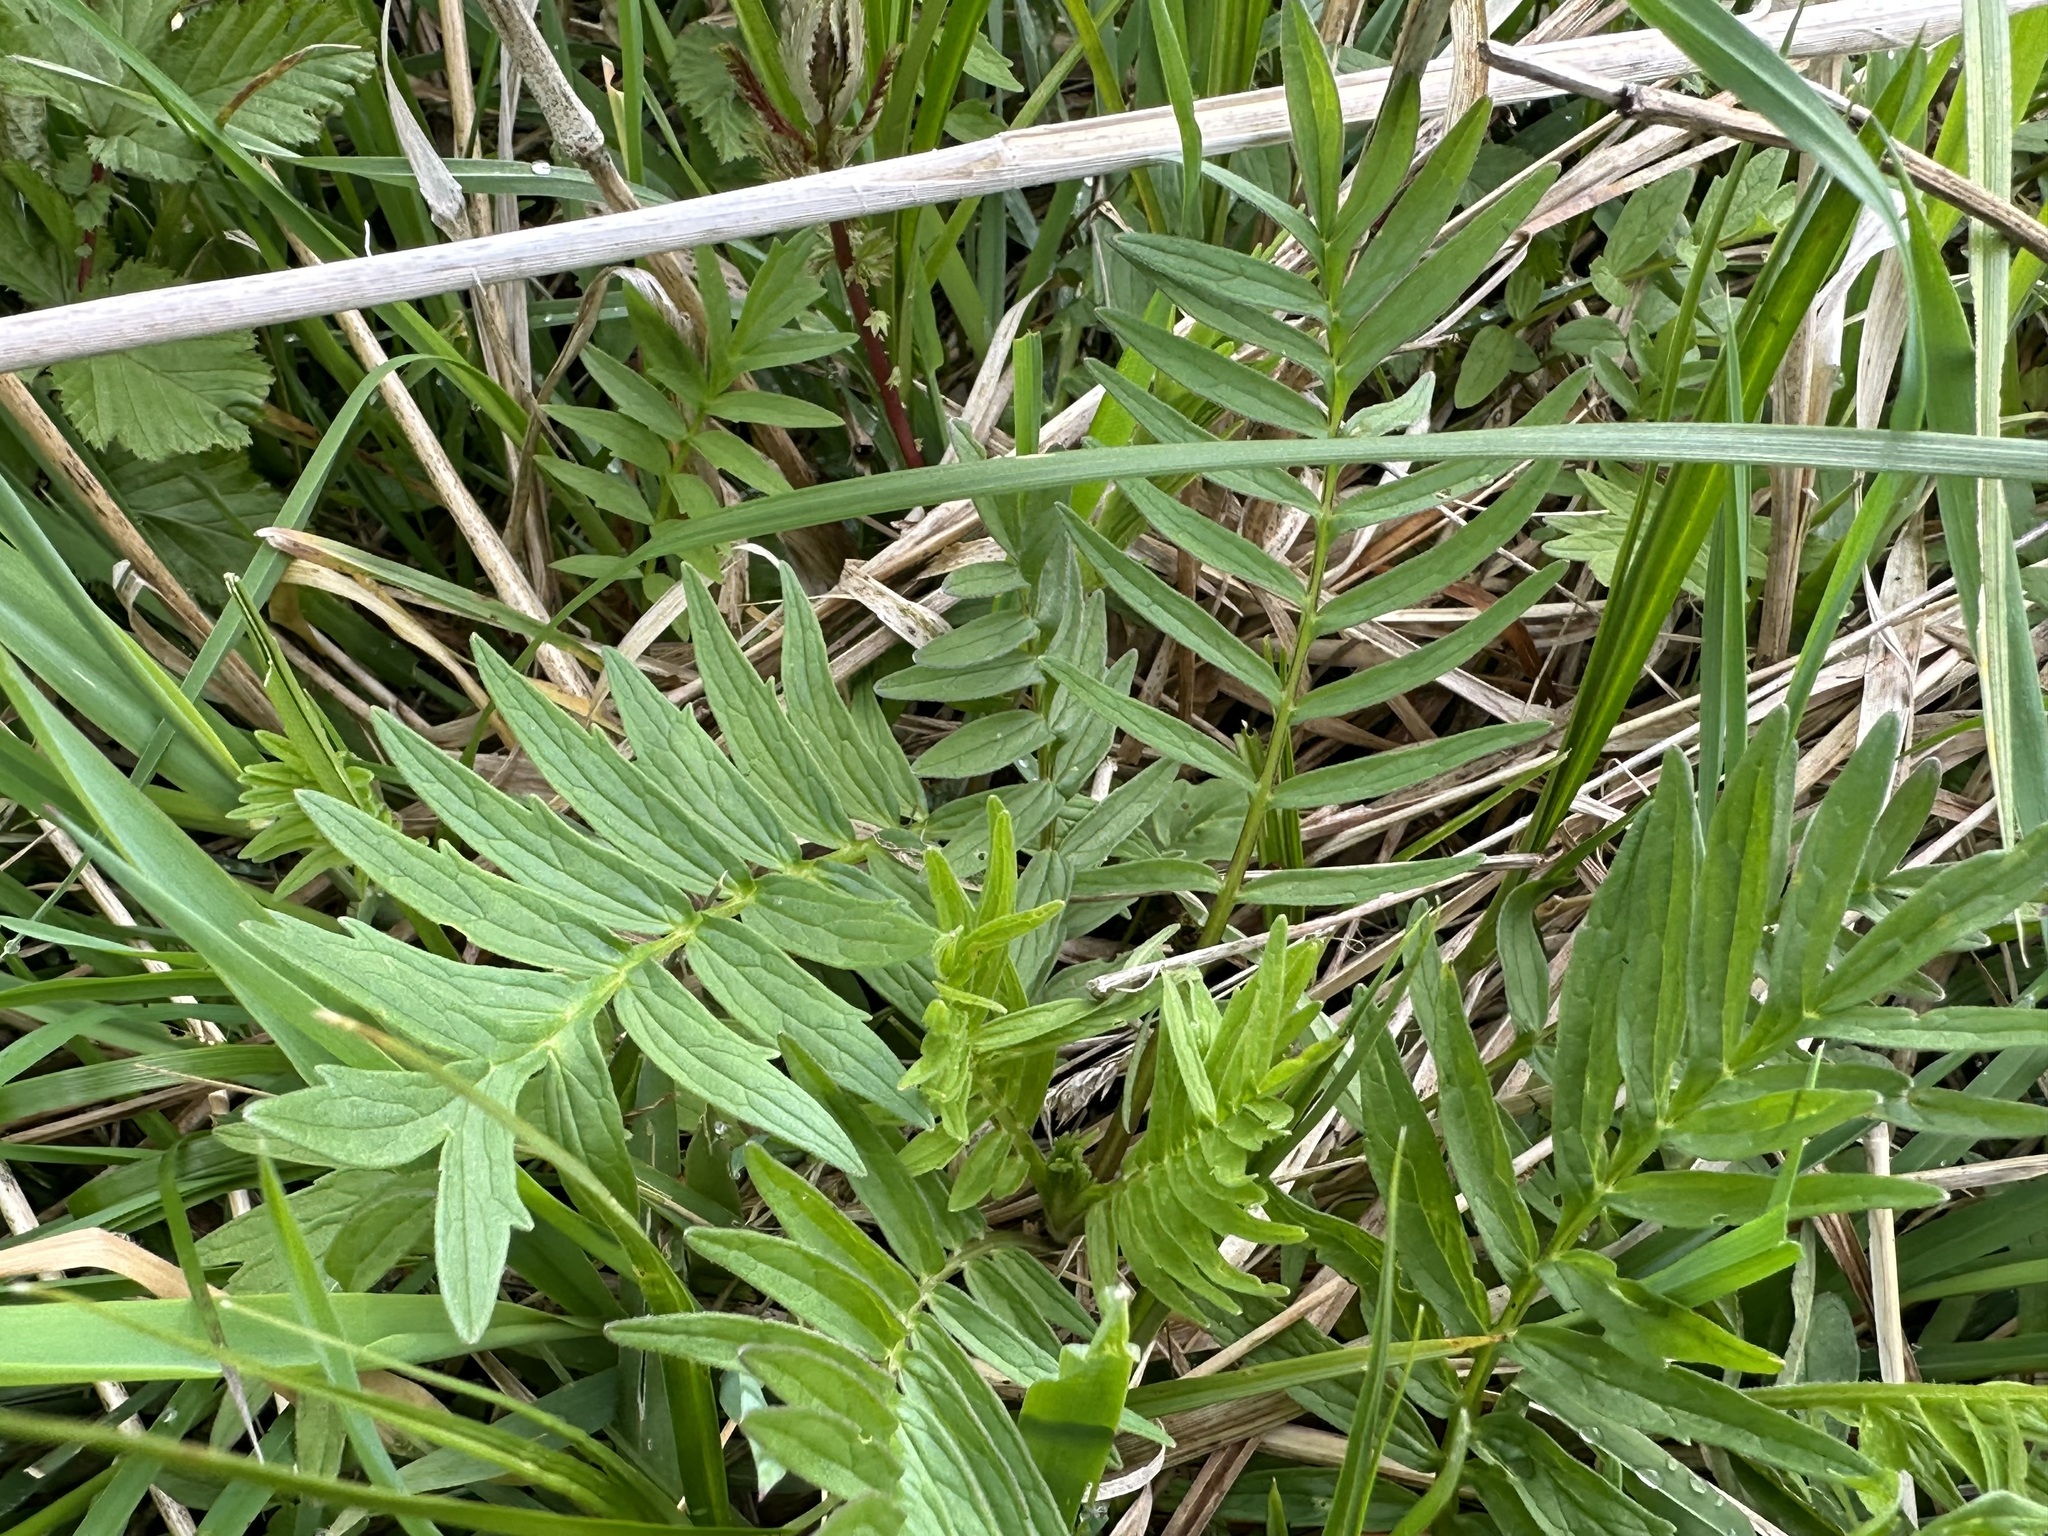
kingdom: Plantae
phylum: Tracheophyta
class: Magnoliopsida
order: Dipsacales
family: Caprifoliaceae
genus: Valeriana
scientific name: Valeriana officinalis
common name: Common valerian
